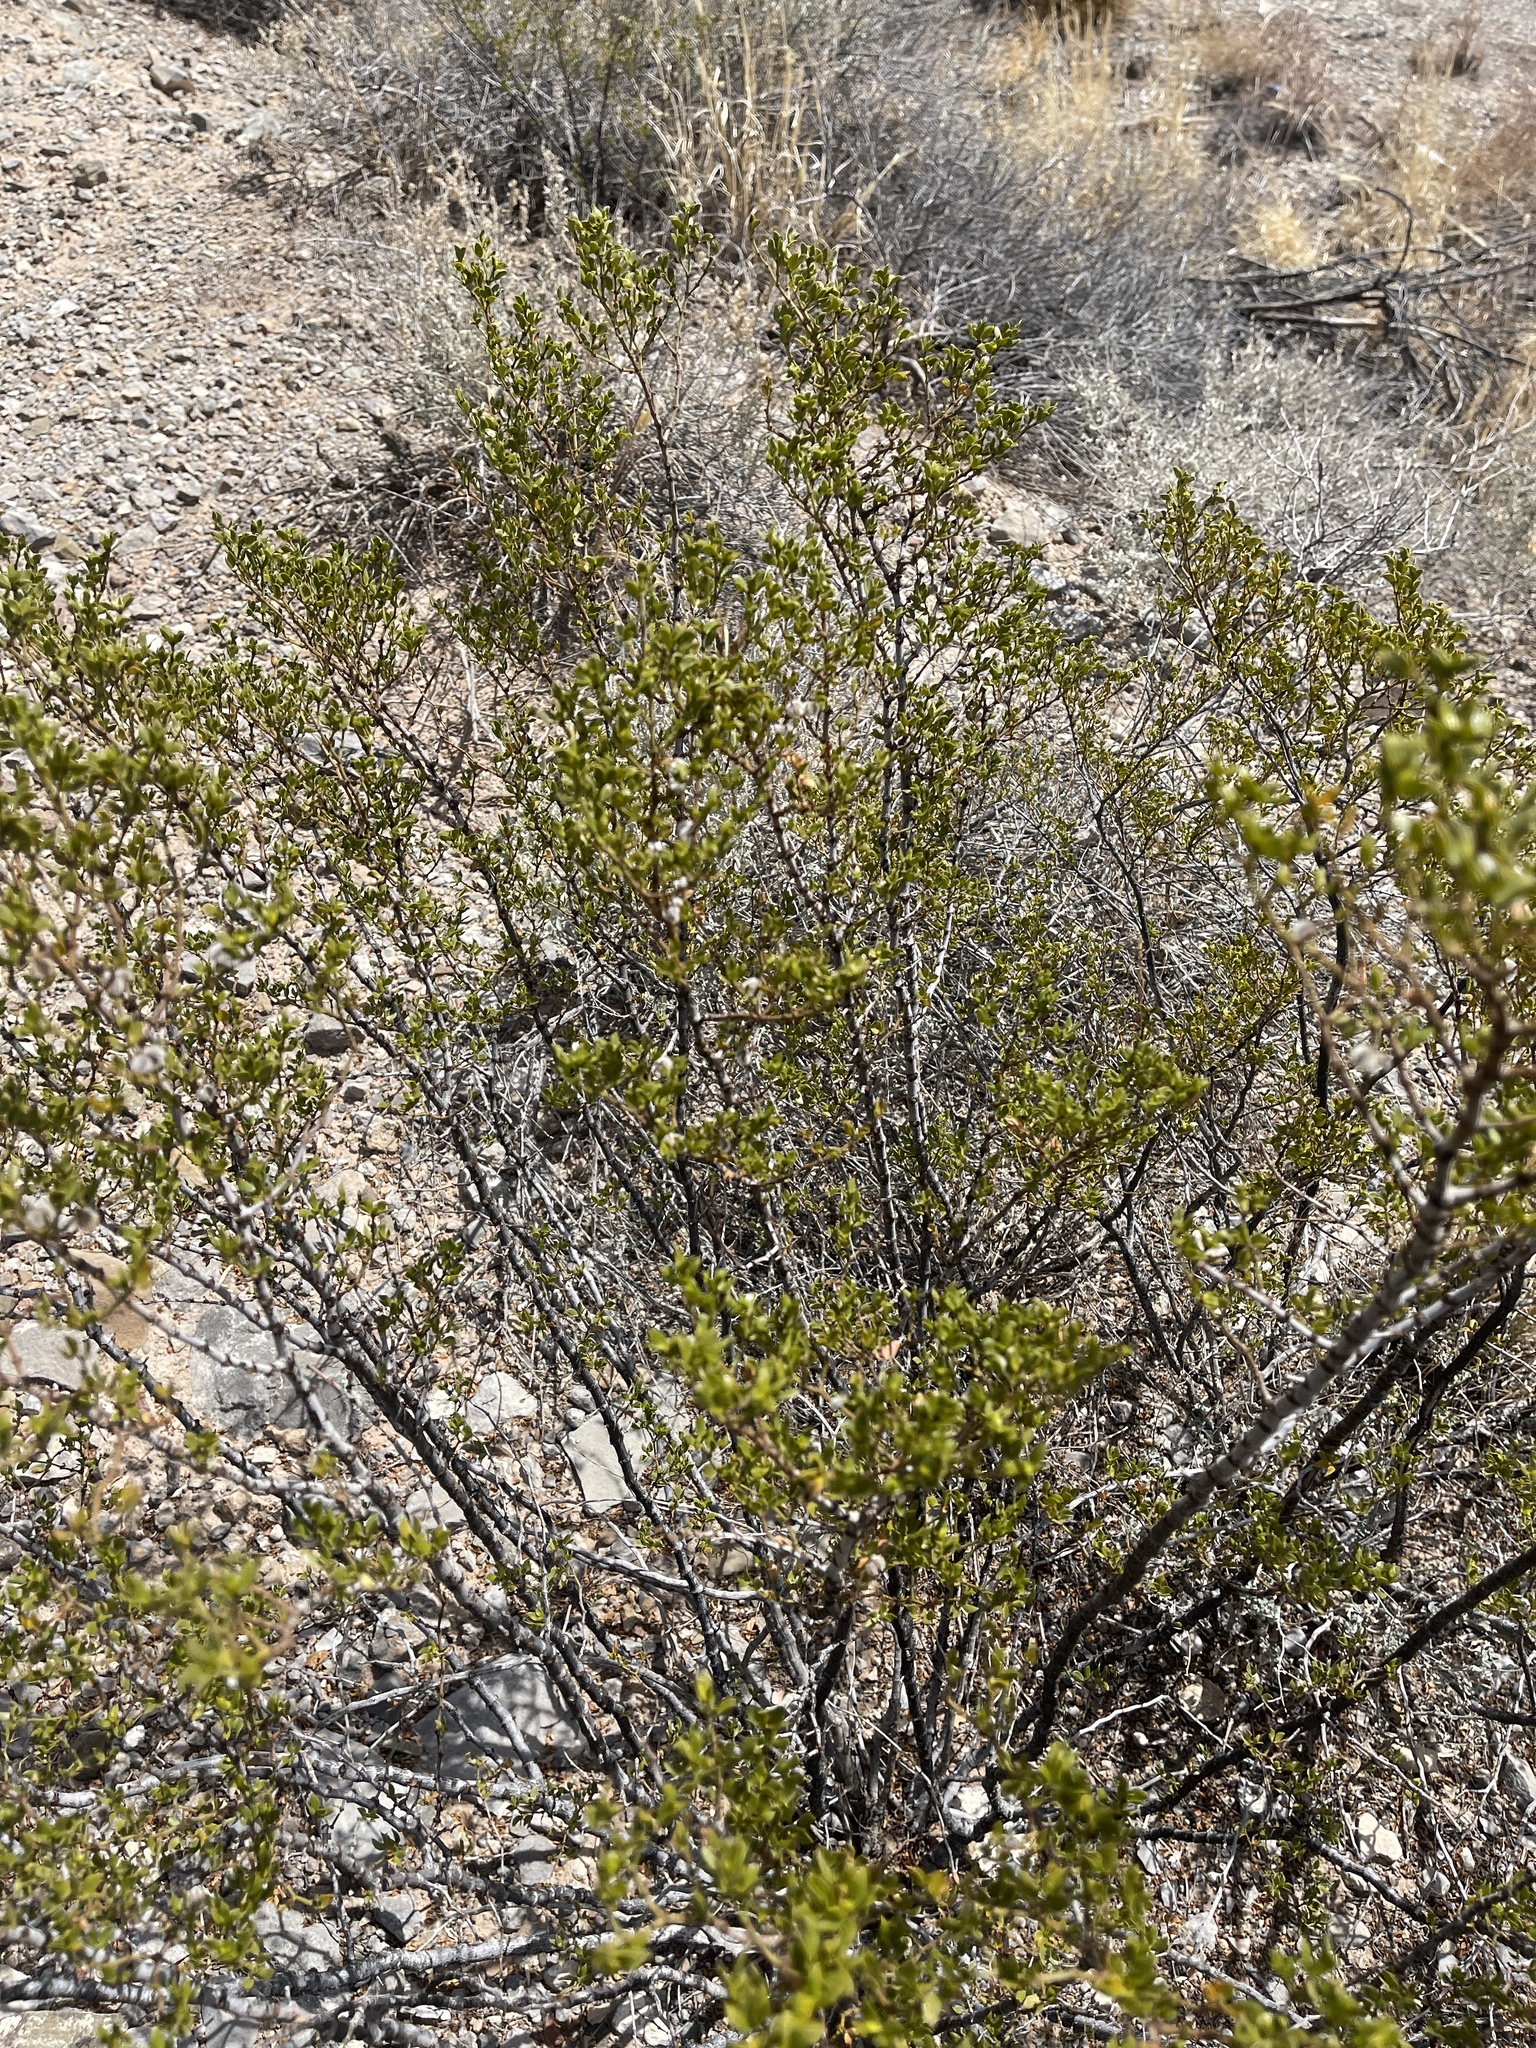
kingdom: Plantae
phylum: Tracheophyta
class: Magnoliopsida
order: Zygophyllales
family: Zygophyllaceae
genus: Larrea
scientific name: Larrea tridentata
